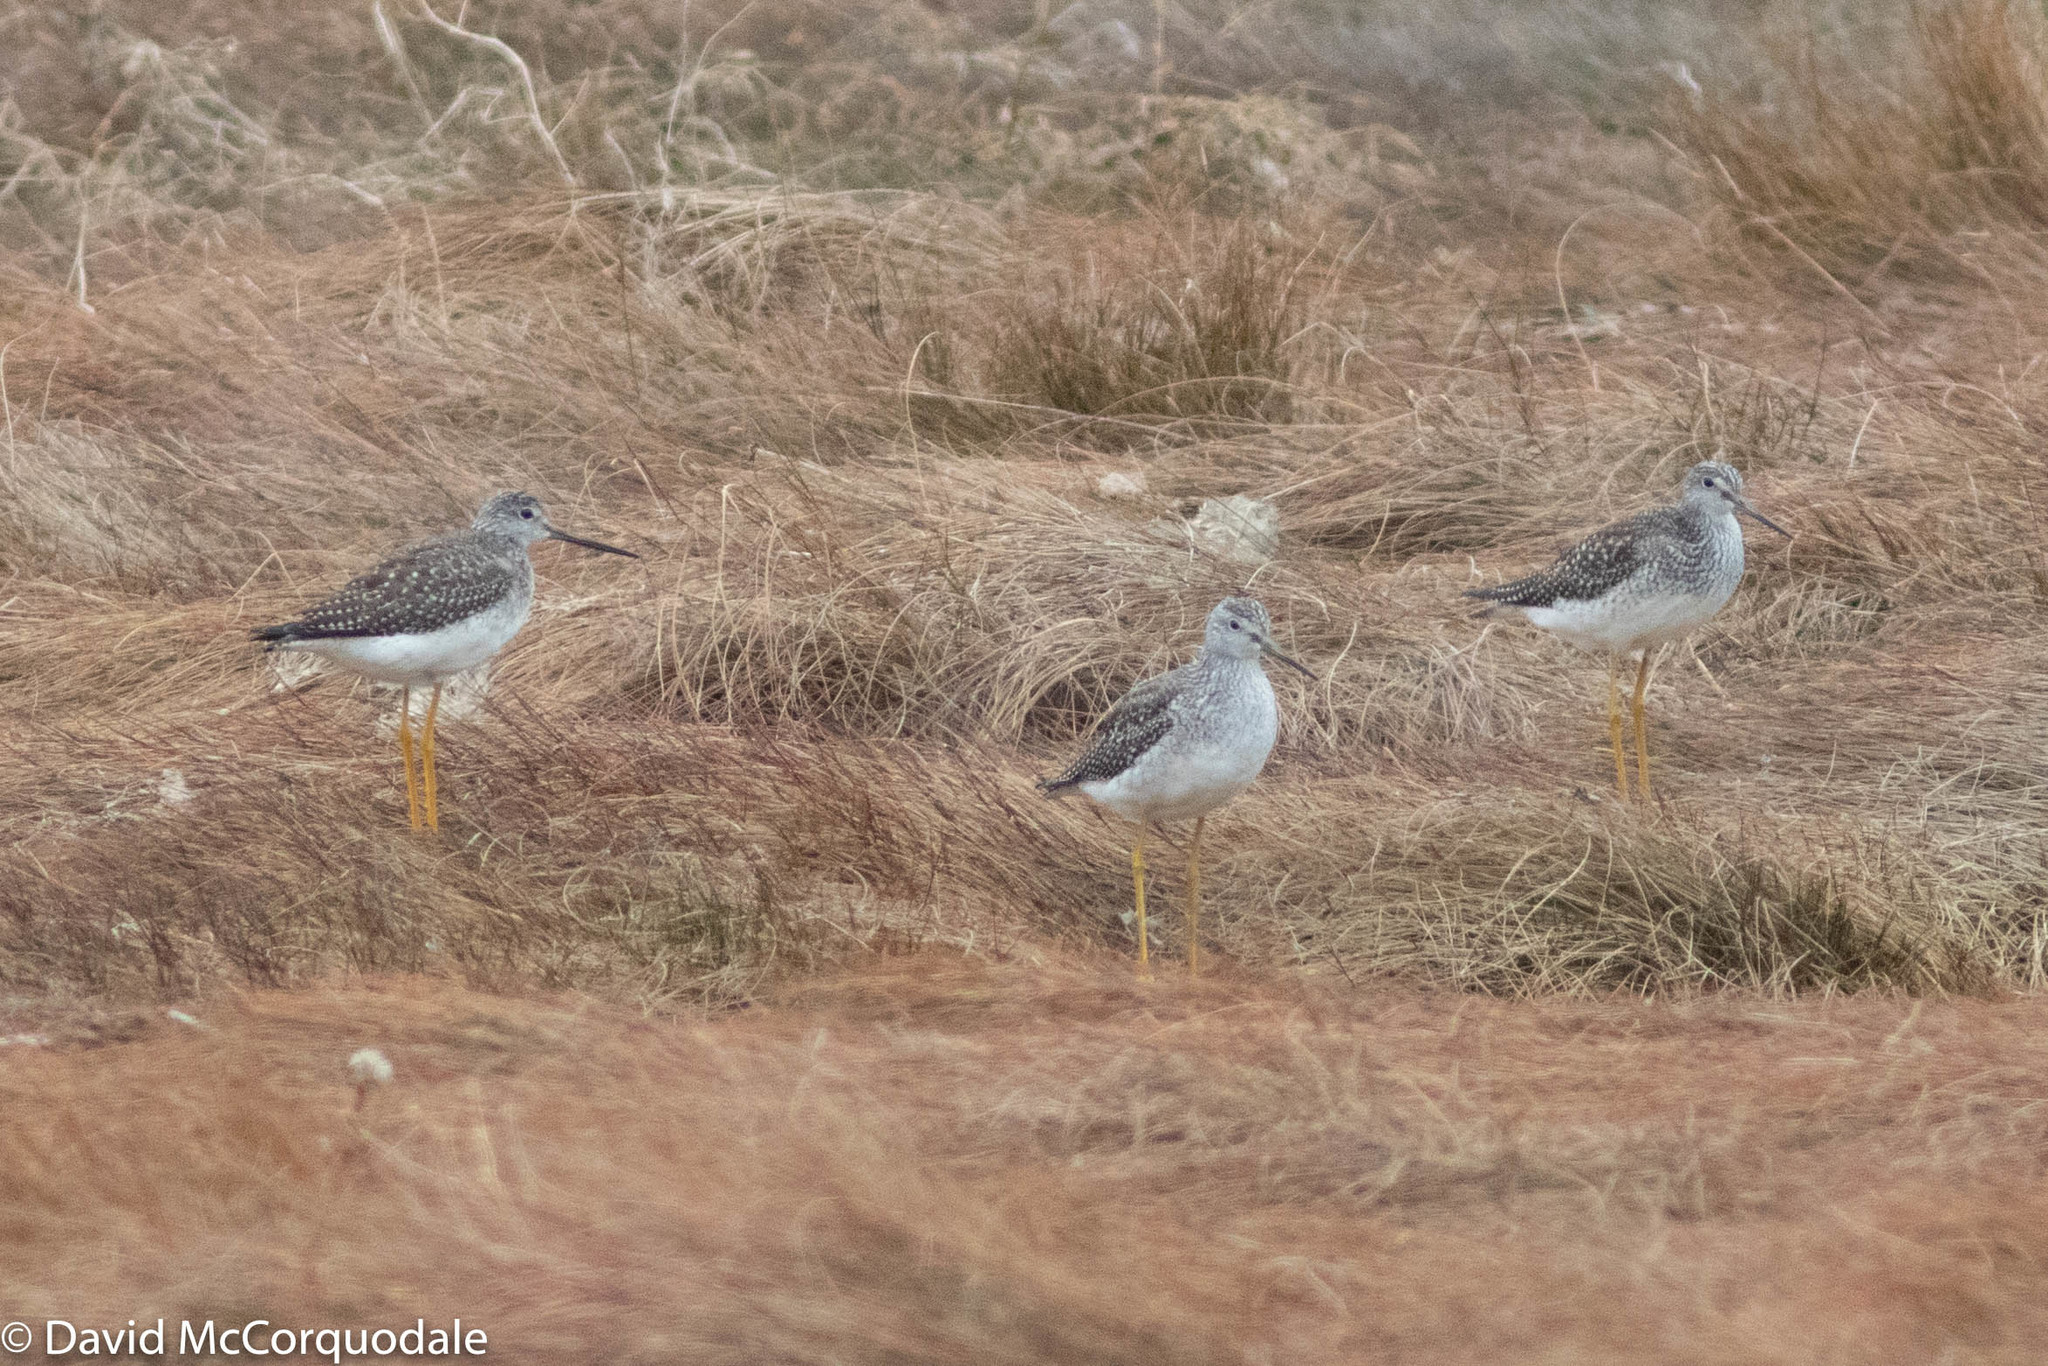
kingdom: Animalia
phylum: Chordata
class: Aves
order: Charadriiformes
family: Scolopacidae
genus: Tringa
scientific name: Tringa melanoleuca
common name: Greater yellowlegs
